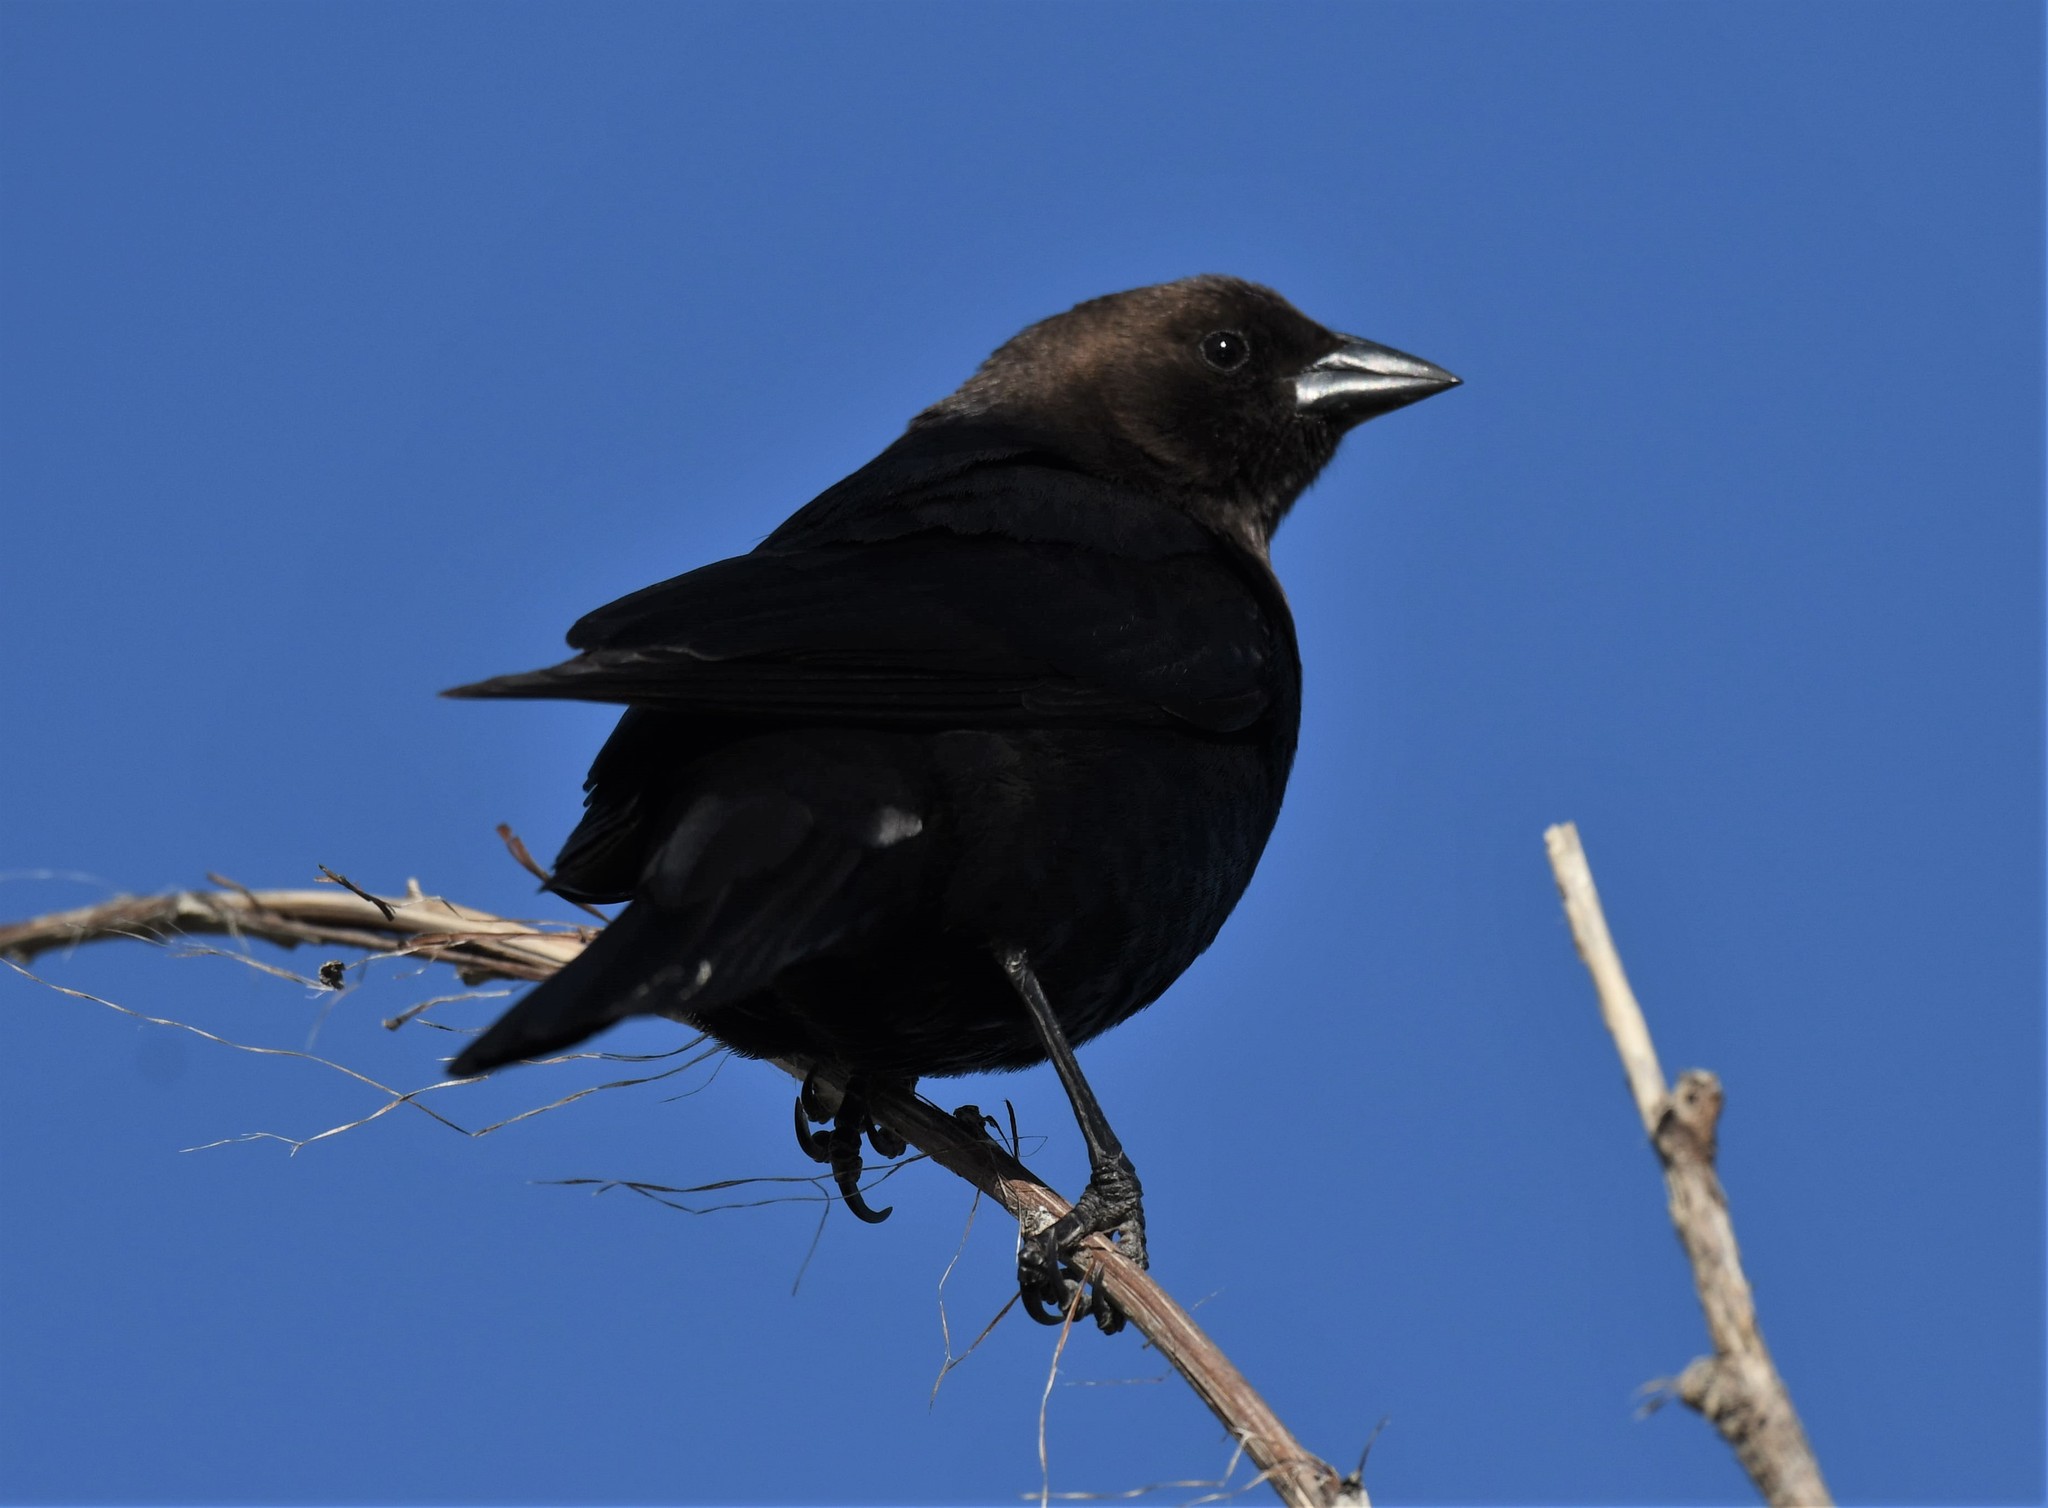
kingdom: Animalia
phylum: Chordata
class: Aves
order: Passeriformes
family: Icteridae
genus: Molothrus
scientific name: Molothrus ater
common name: Brown-headed cowbird
